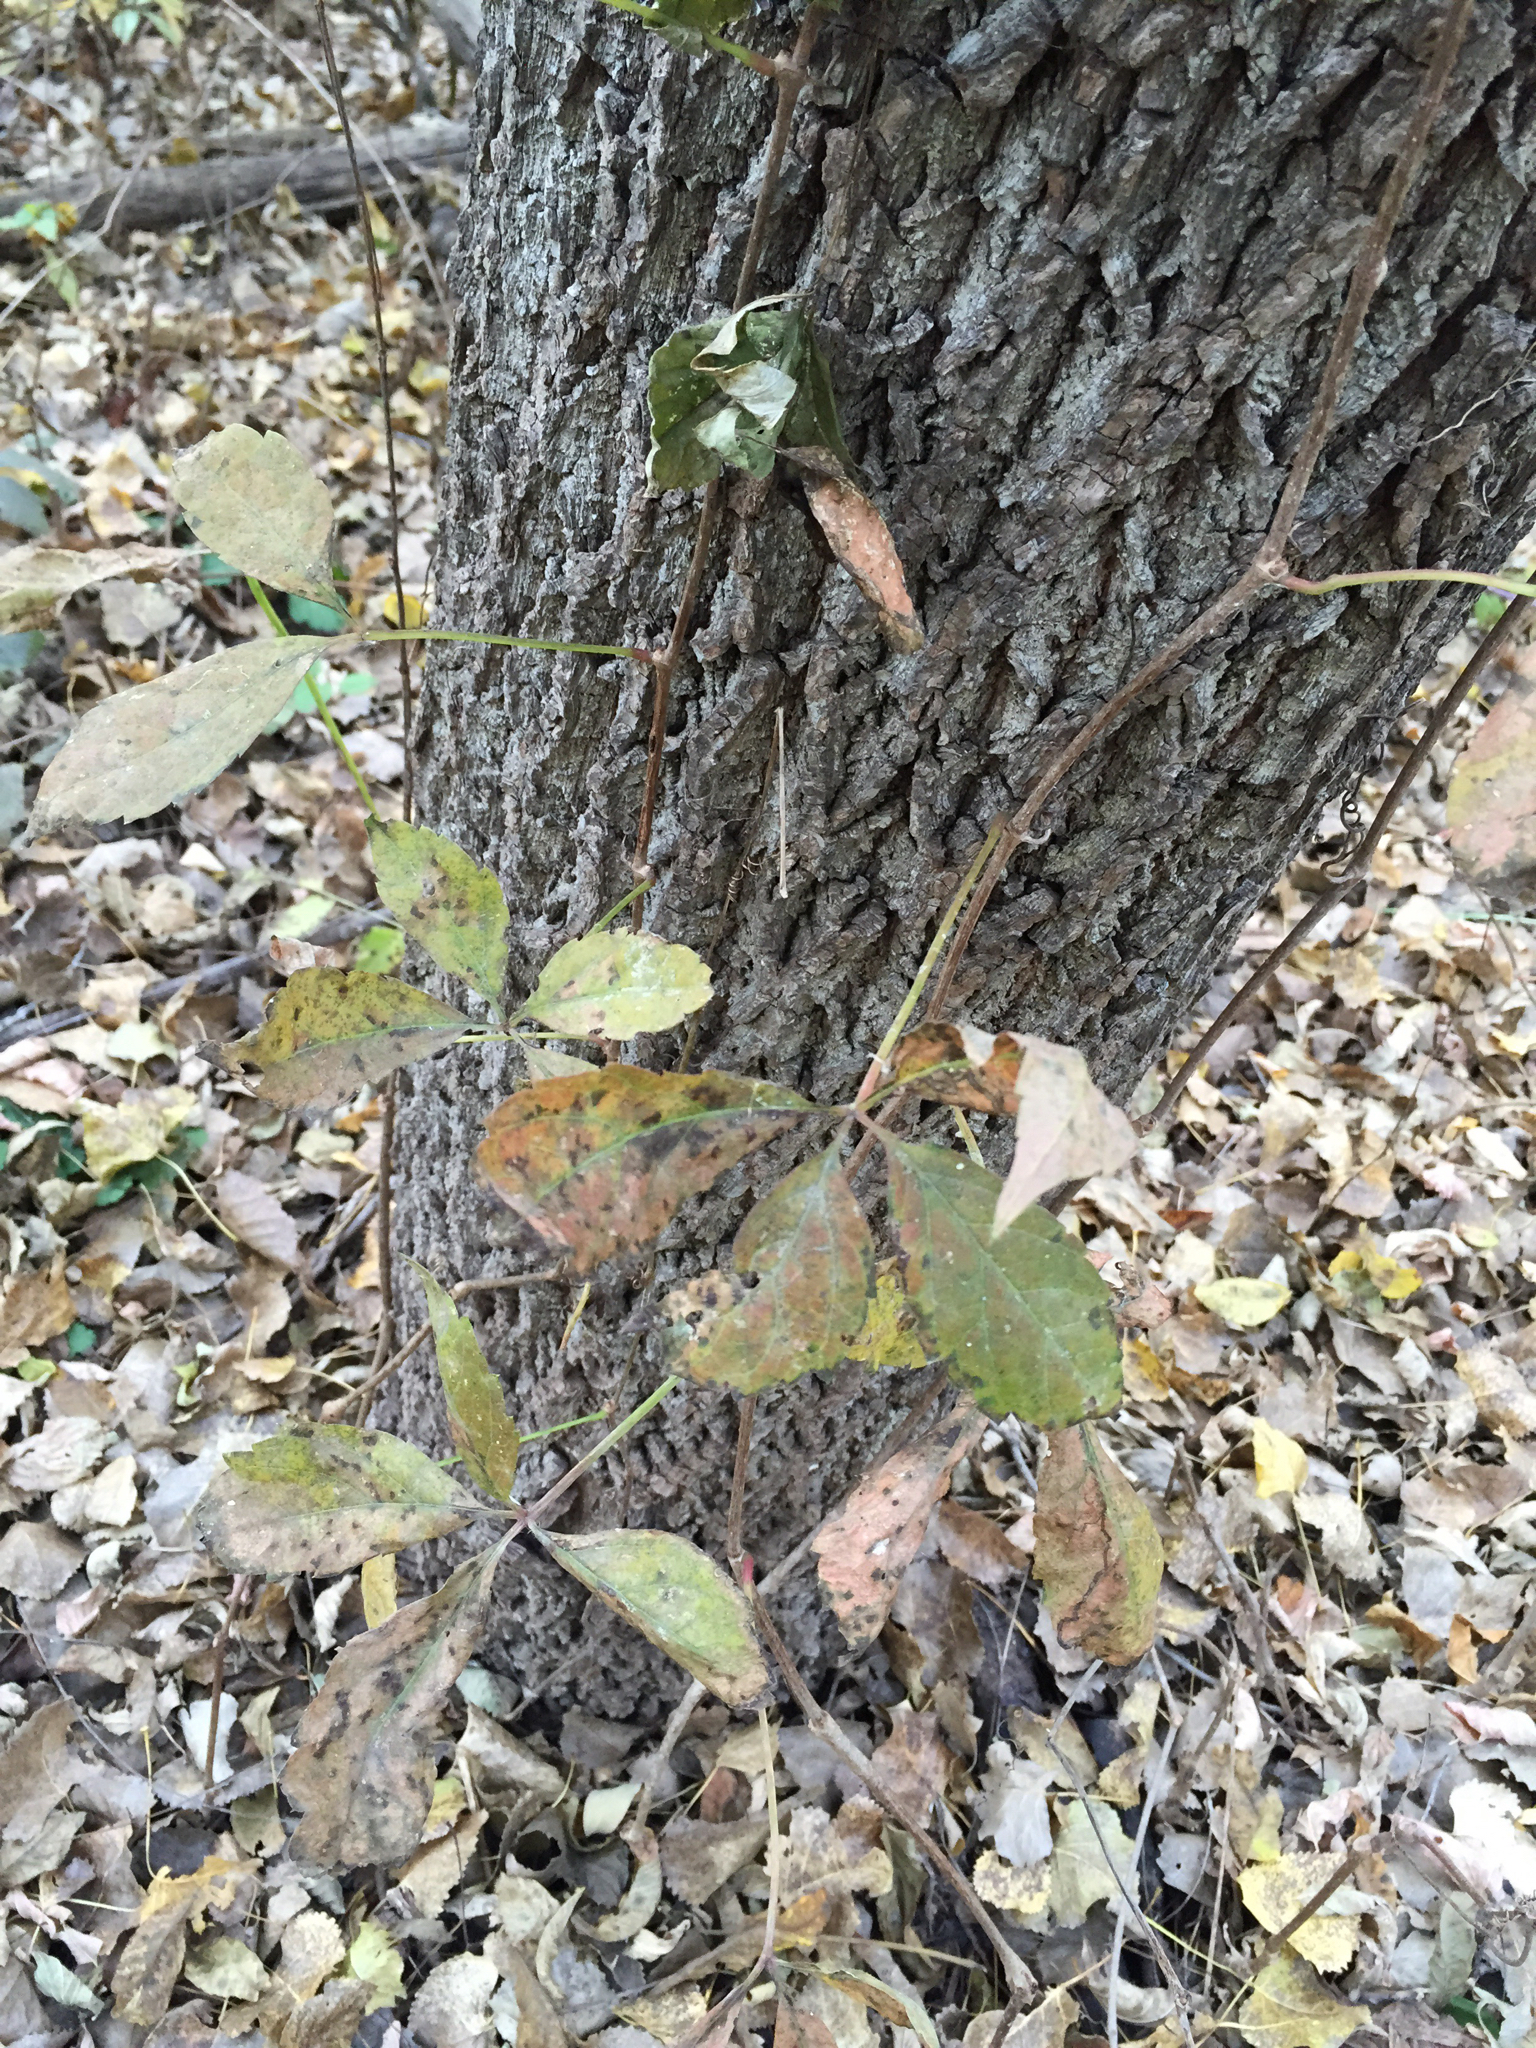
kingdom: Plantae
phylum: Tracheophyta
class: Magnoliopsida
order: Vitales
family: Vitaceae
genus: Parthenocissus
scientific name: Parthenocissus quinquefolia
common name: Virginia-creeper
